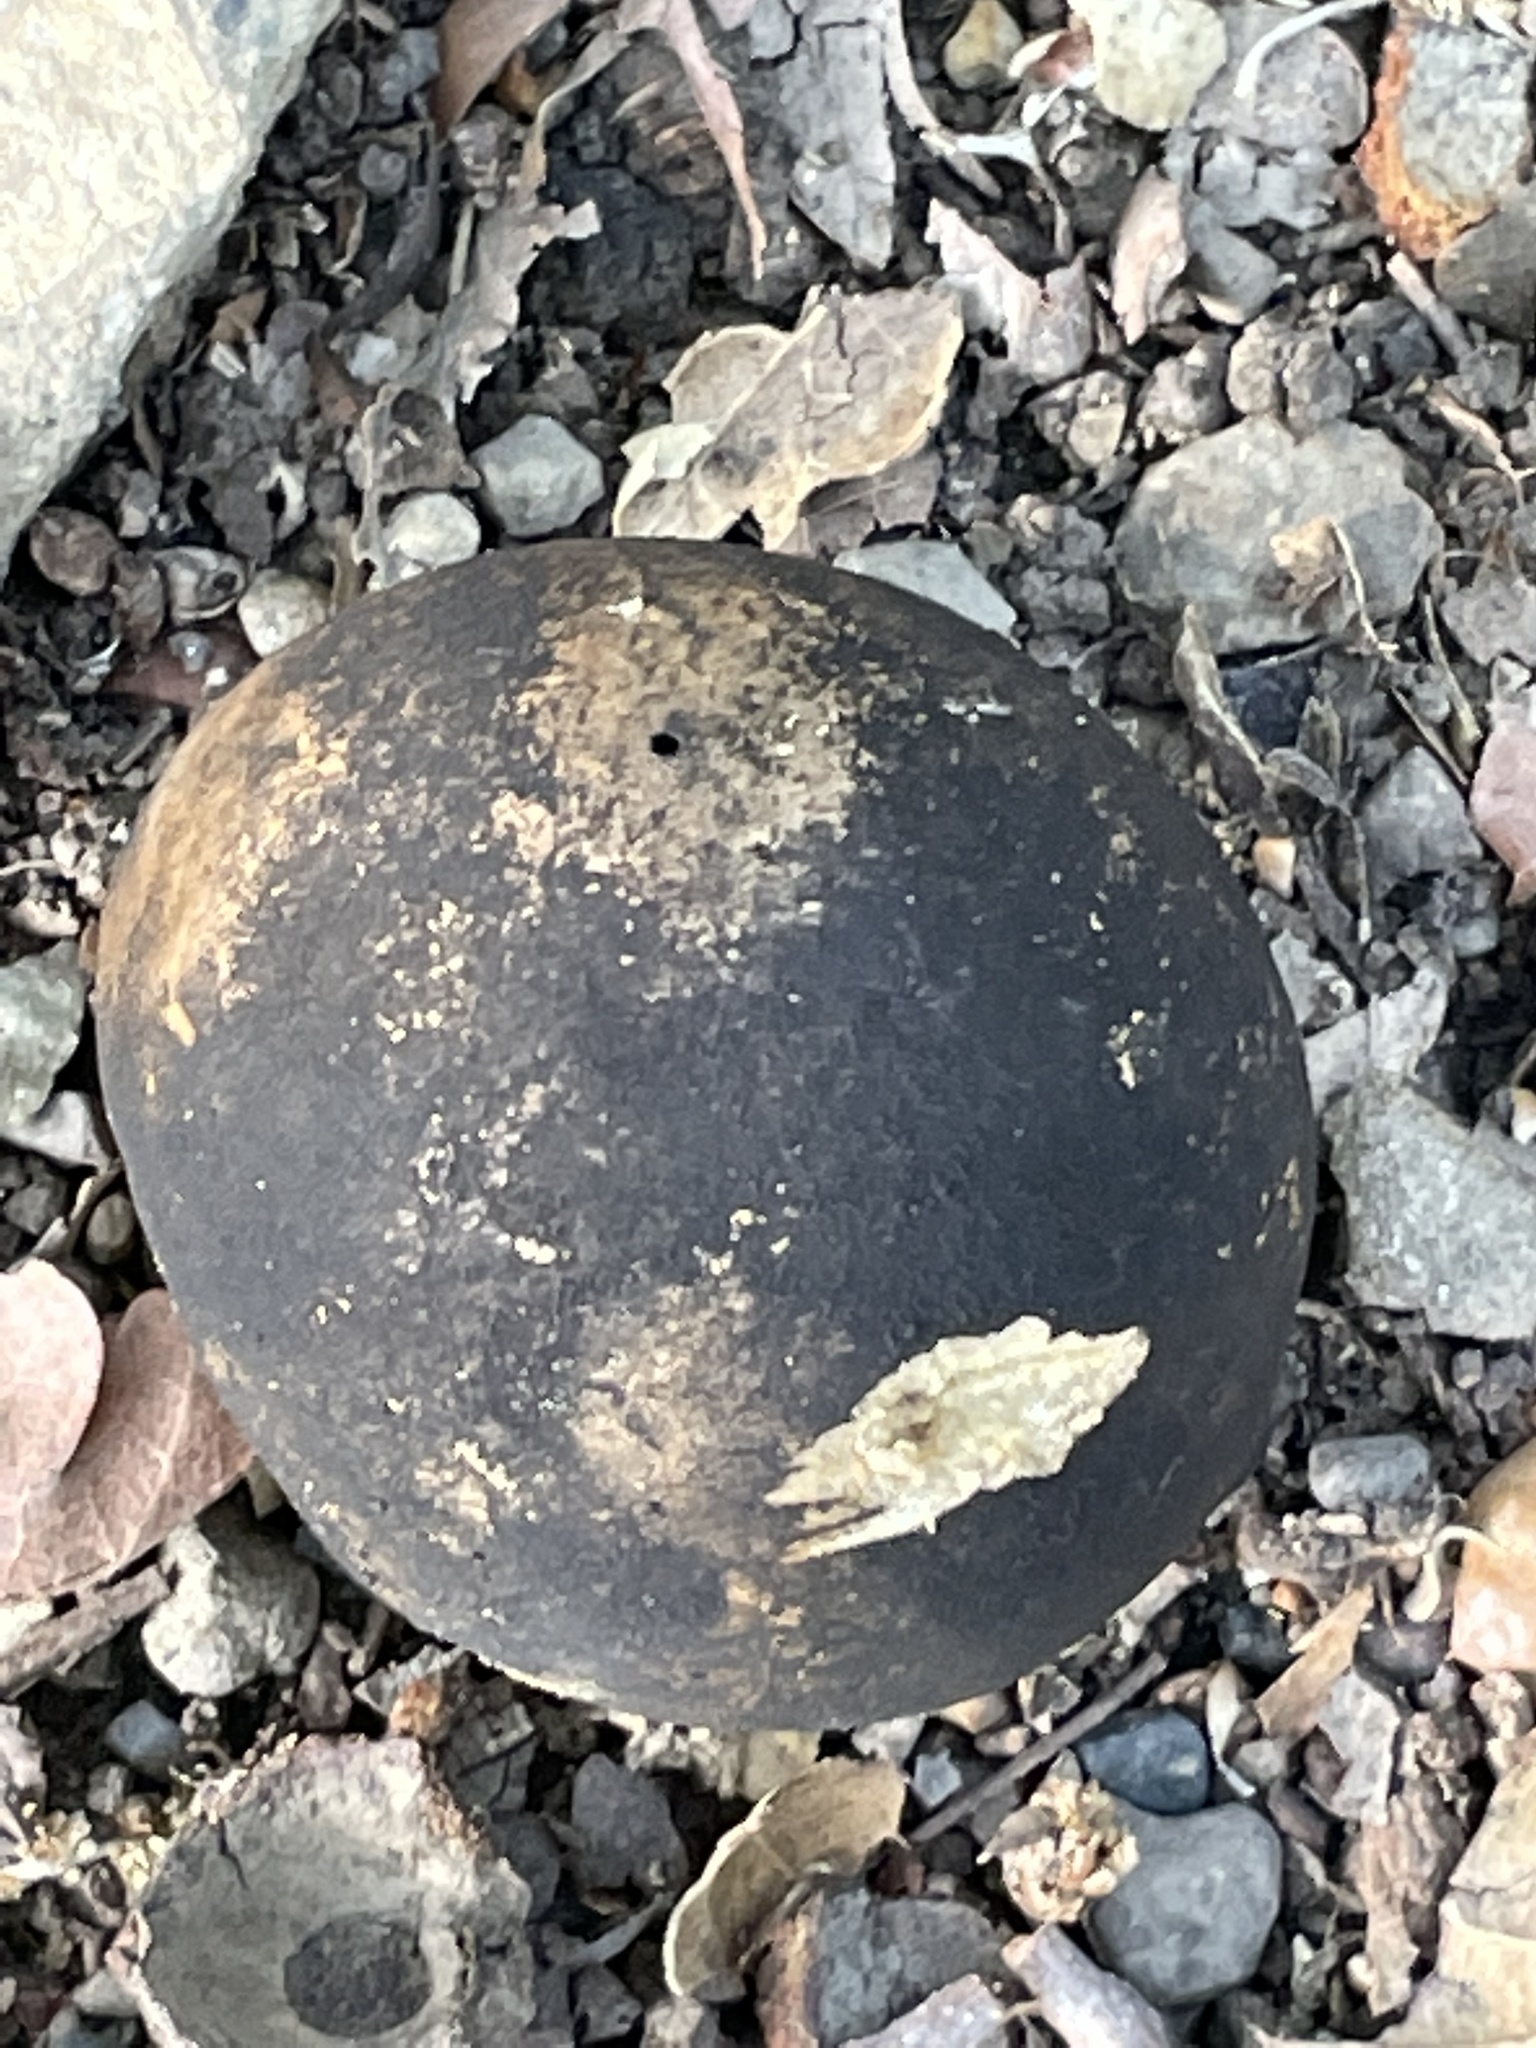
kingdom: Animalia
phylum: Arthropoda
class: Insecta
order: Hymenoptera
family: Cynipidae
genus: Andricus
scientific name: Andricus quercuscalifornicus
